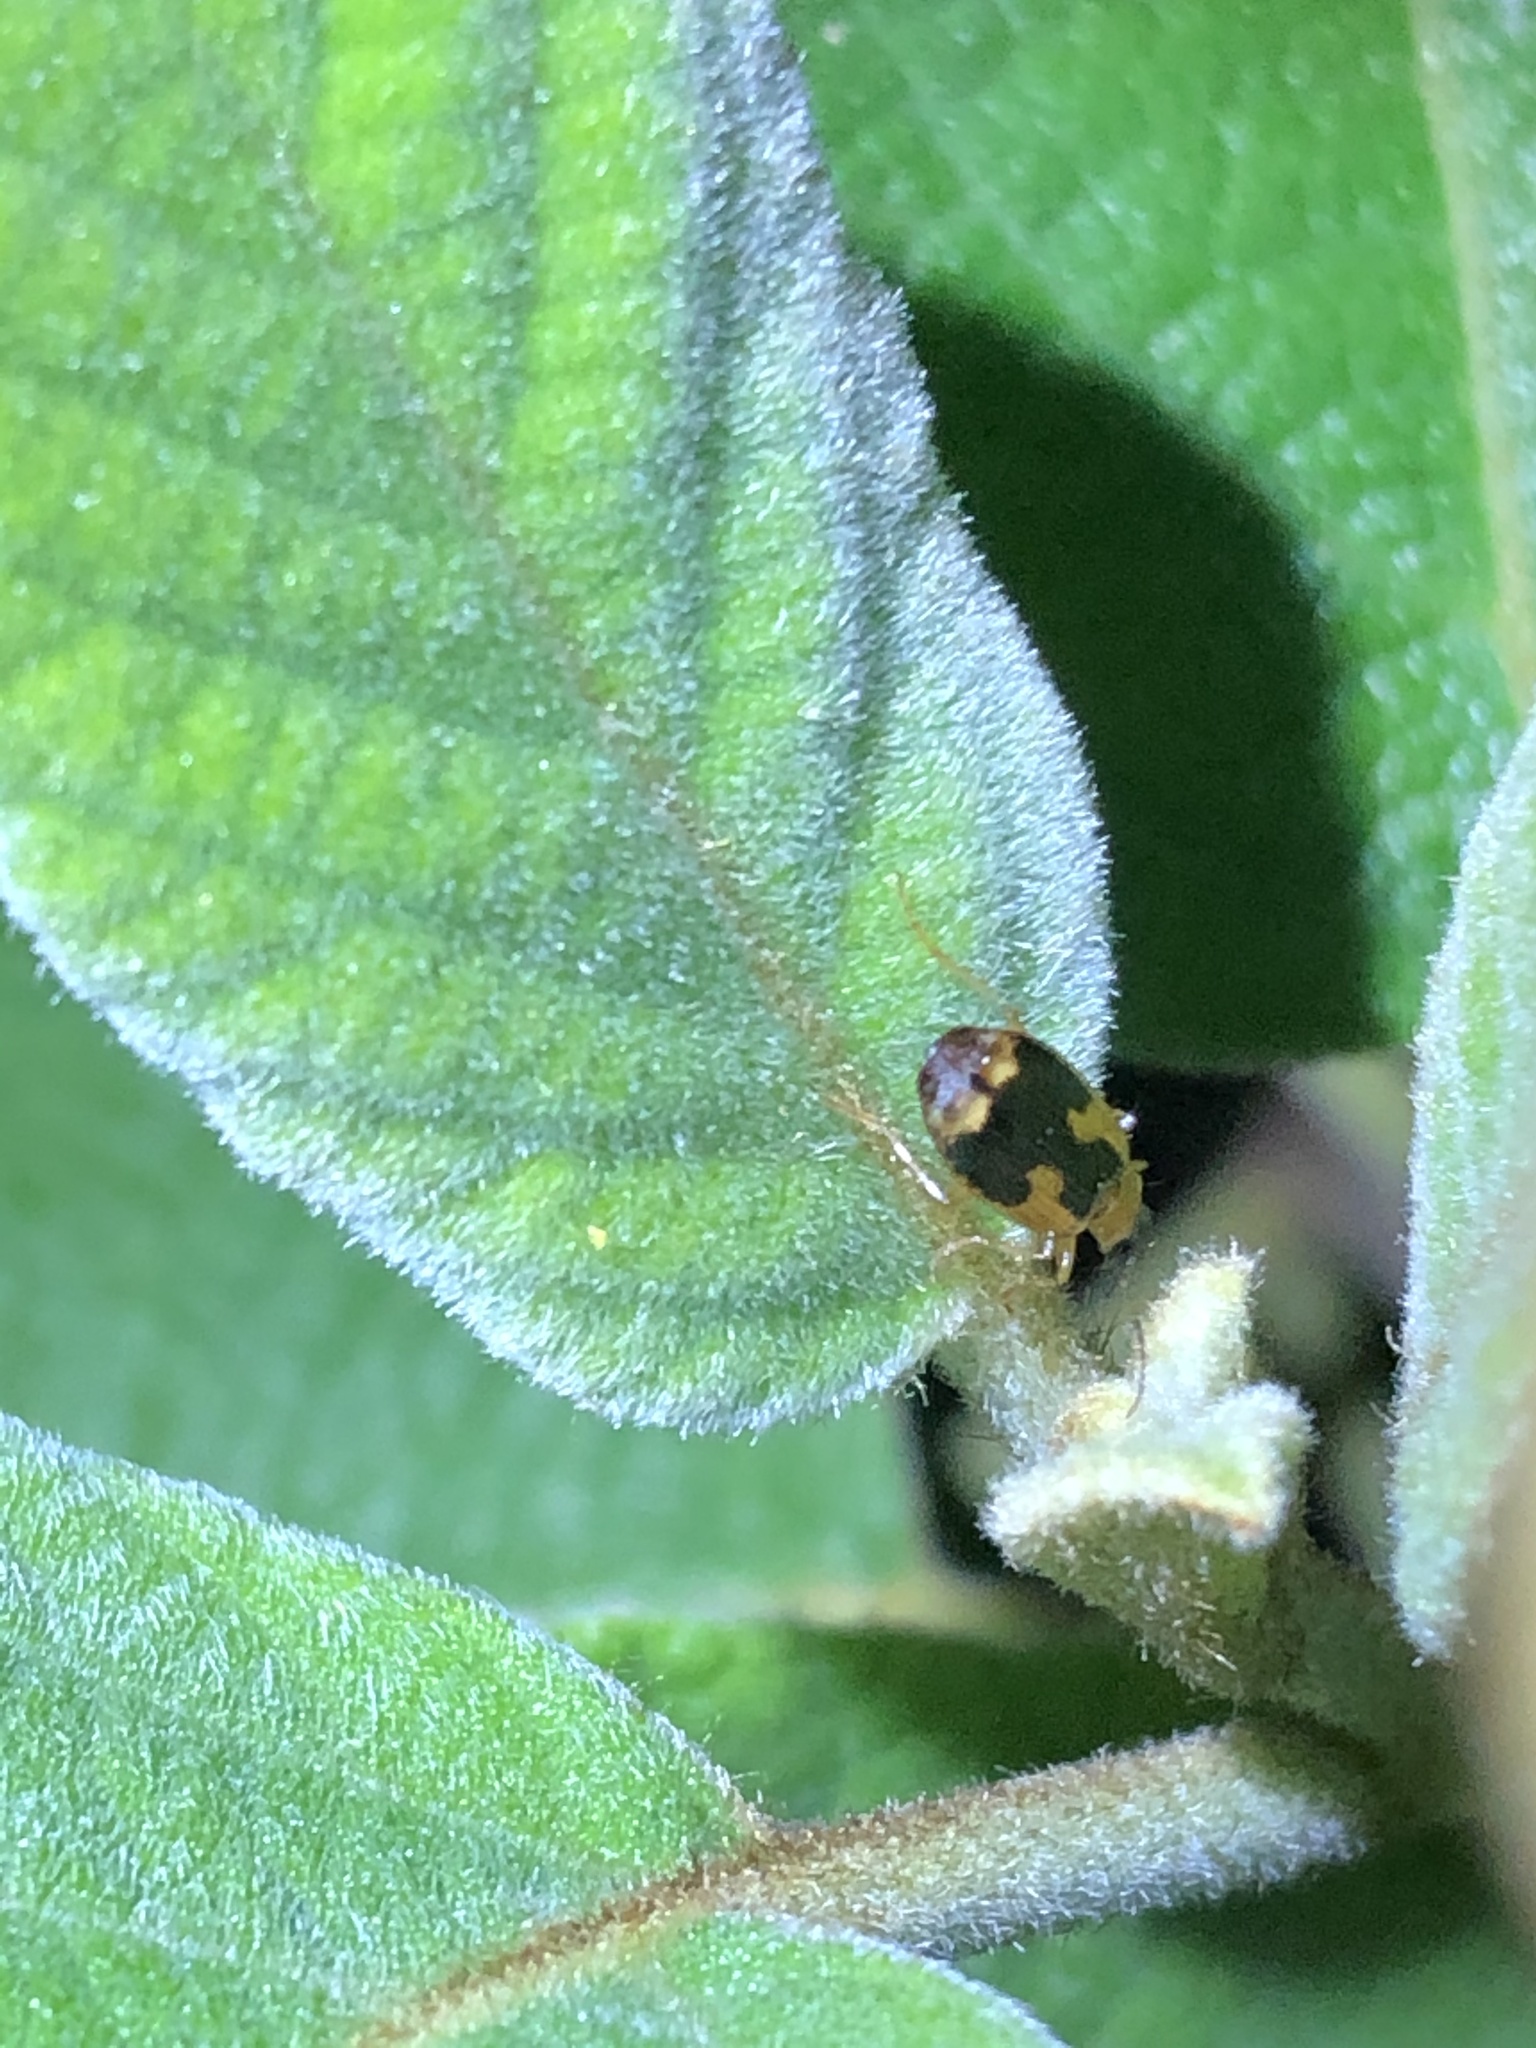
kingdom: Animalia
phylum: Arthropoda
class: Insecta
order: Coleoptera
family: Carabidae
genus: Lebia
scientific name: Lebia analis
